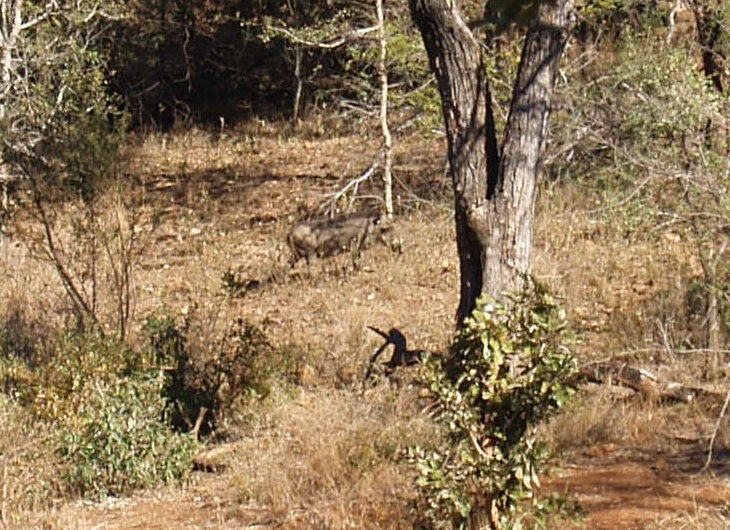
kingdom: Animalia
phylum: Chordata
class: Mammalia
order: Artiodactyla
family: Suidae
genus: Phacochoerus
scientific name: Phacochoerus africanus
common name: Common warthog
